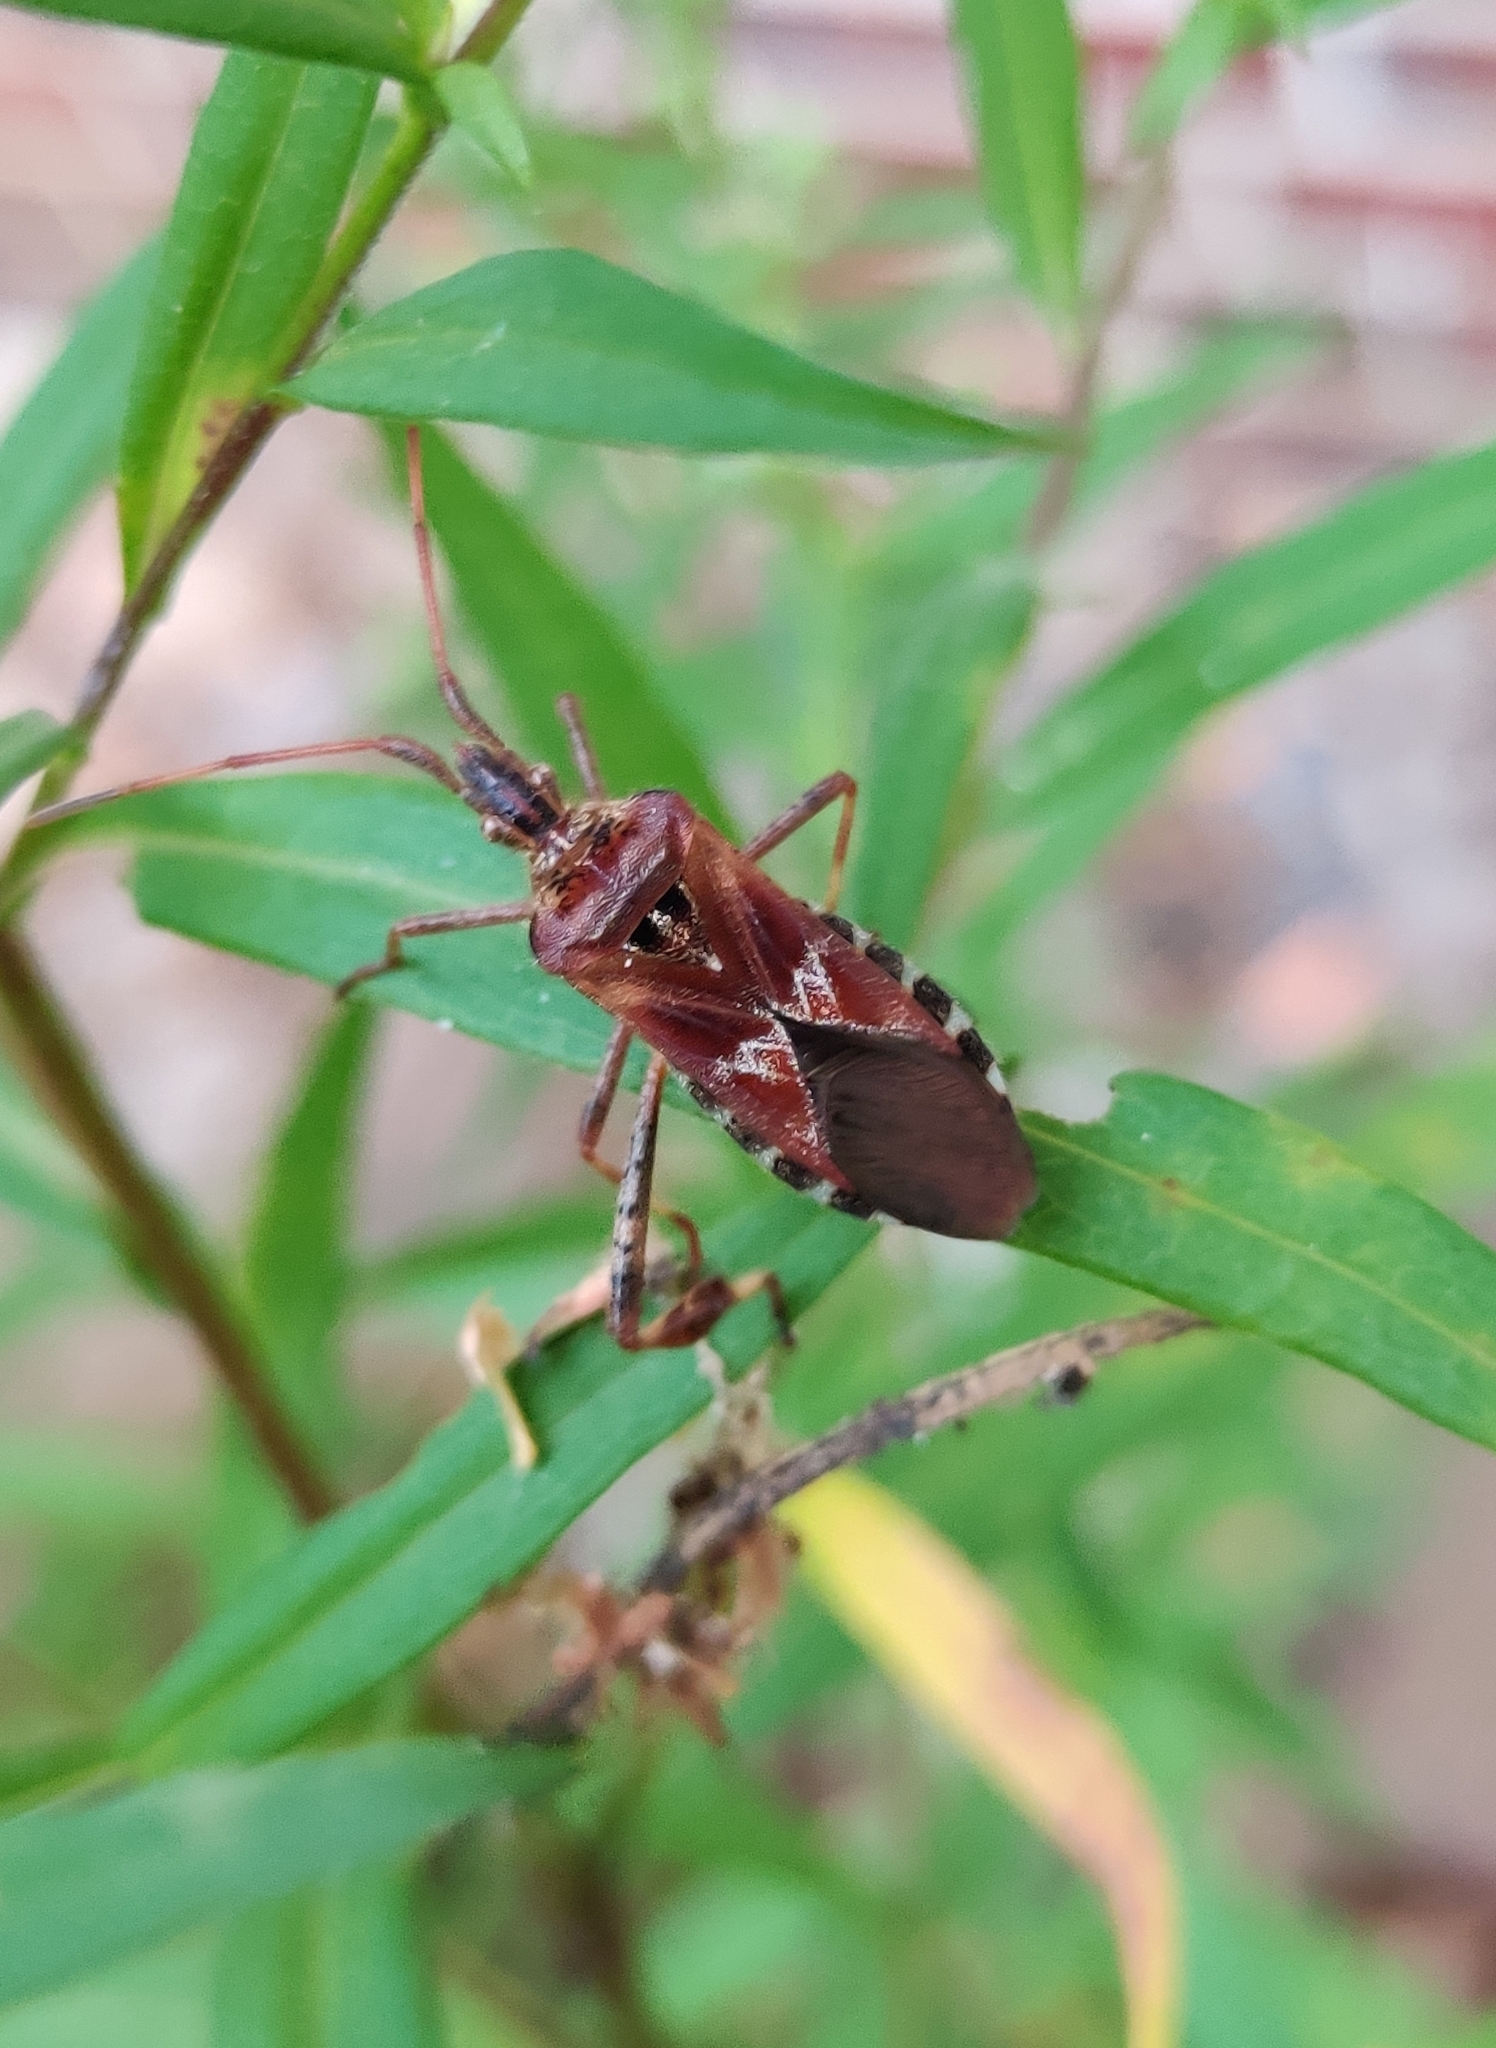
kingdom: Animalia
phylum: Arthropoda
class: Insecta
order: Hemiptera
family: Coreidae
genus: Leptoglossus
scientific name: Leptoglossus occidentalis
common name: Western conifer-seed bug
